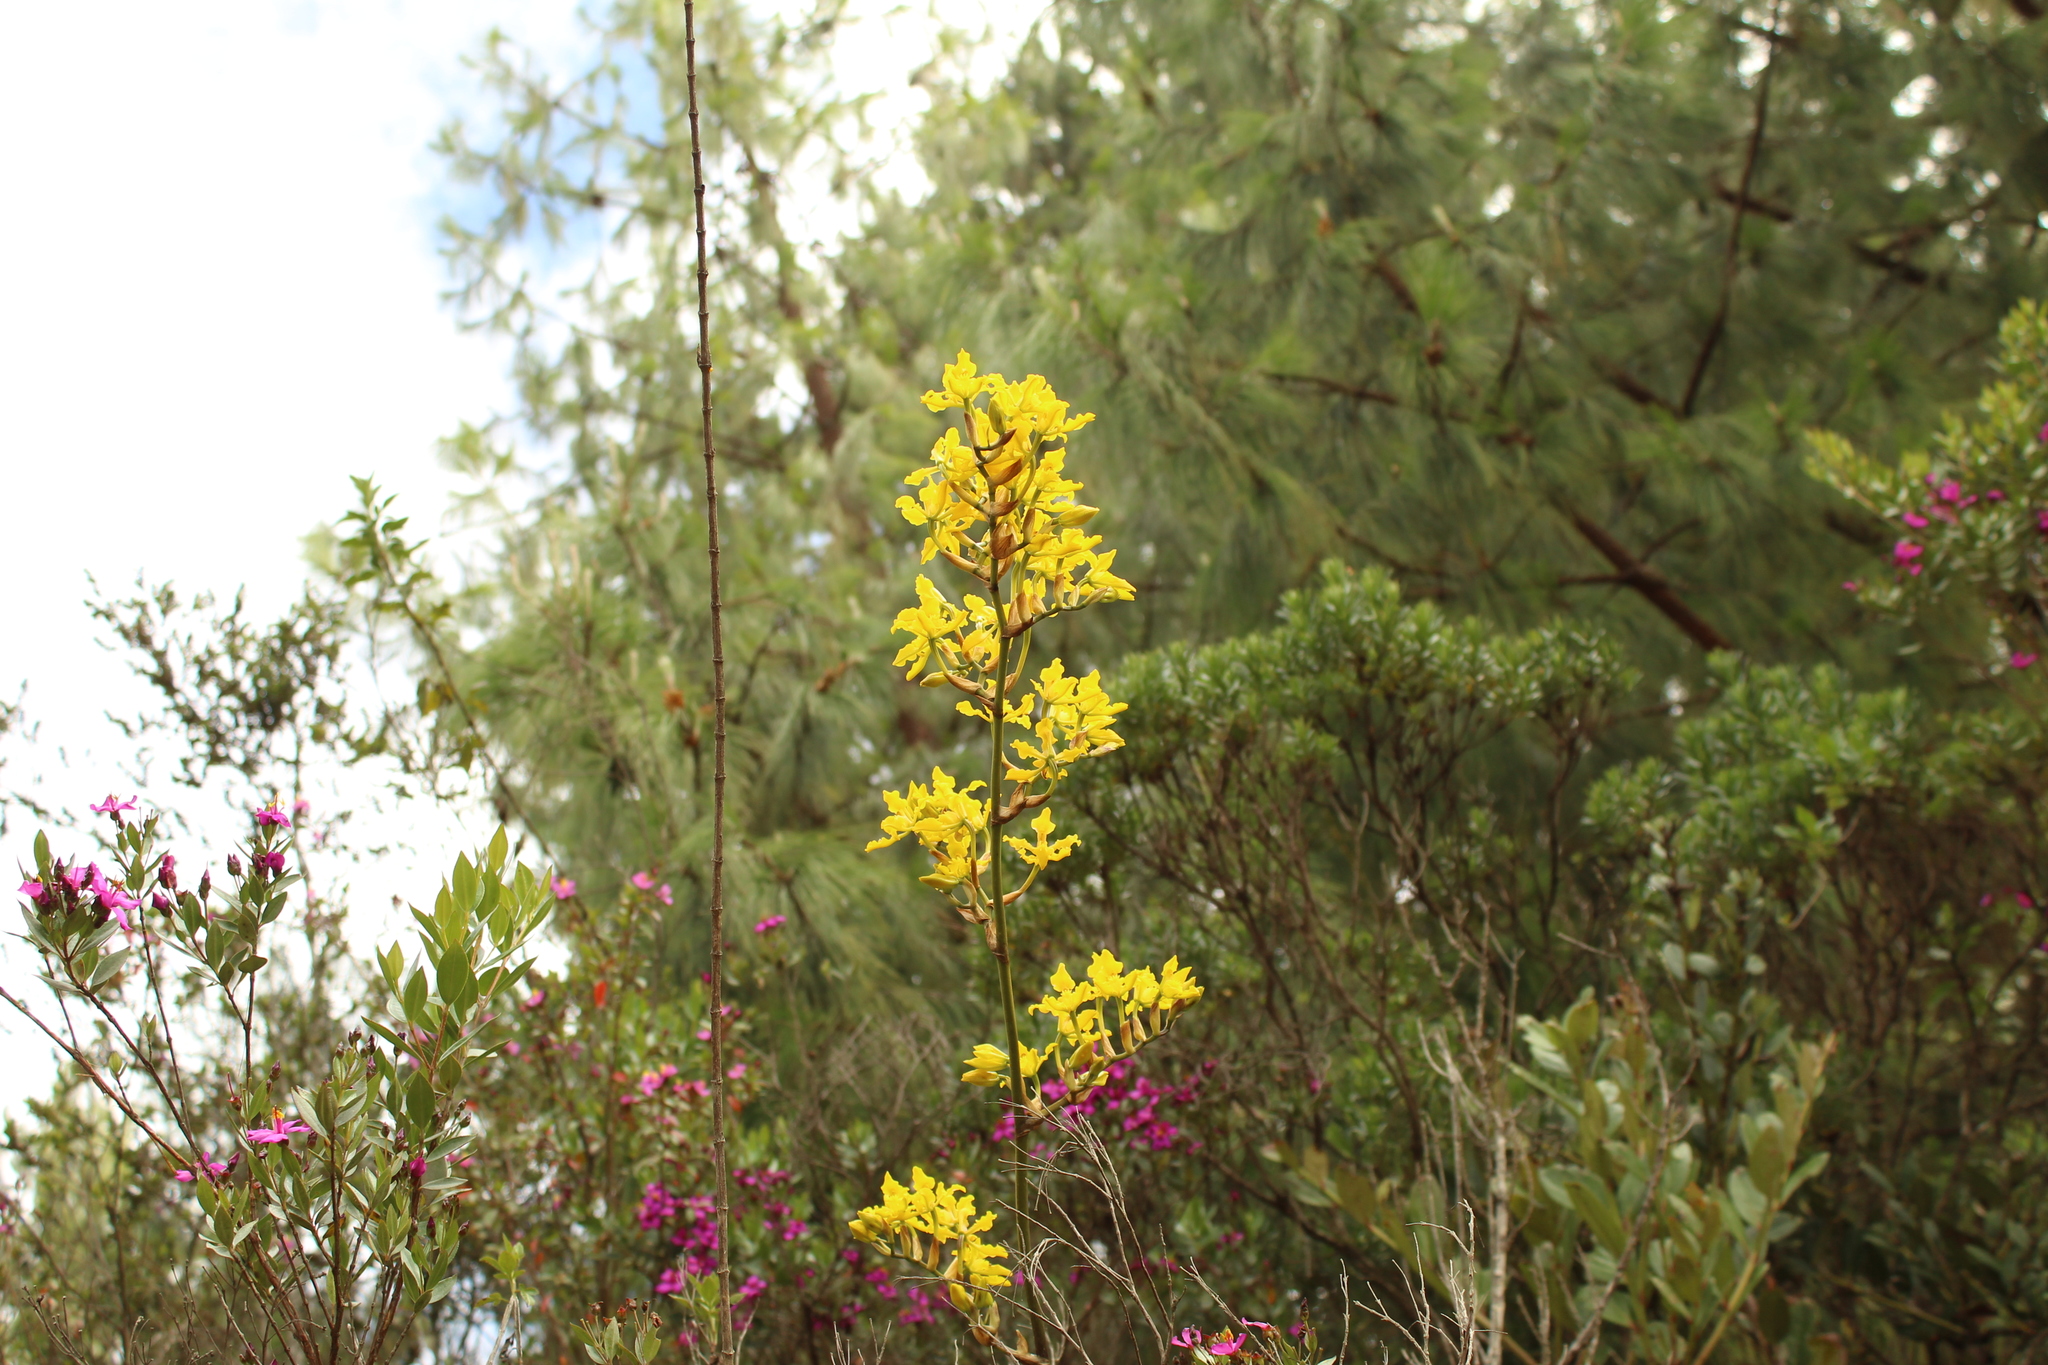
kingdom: Plantae
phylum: Tracheophyta
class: Liliopsida
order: Asparagales
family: Orchidaceae
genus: Cyrtochilum
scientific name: Cyrtochilum revolutum
